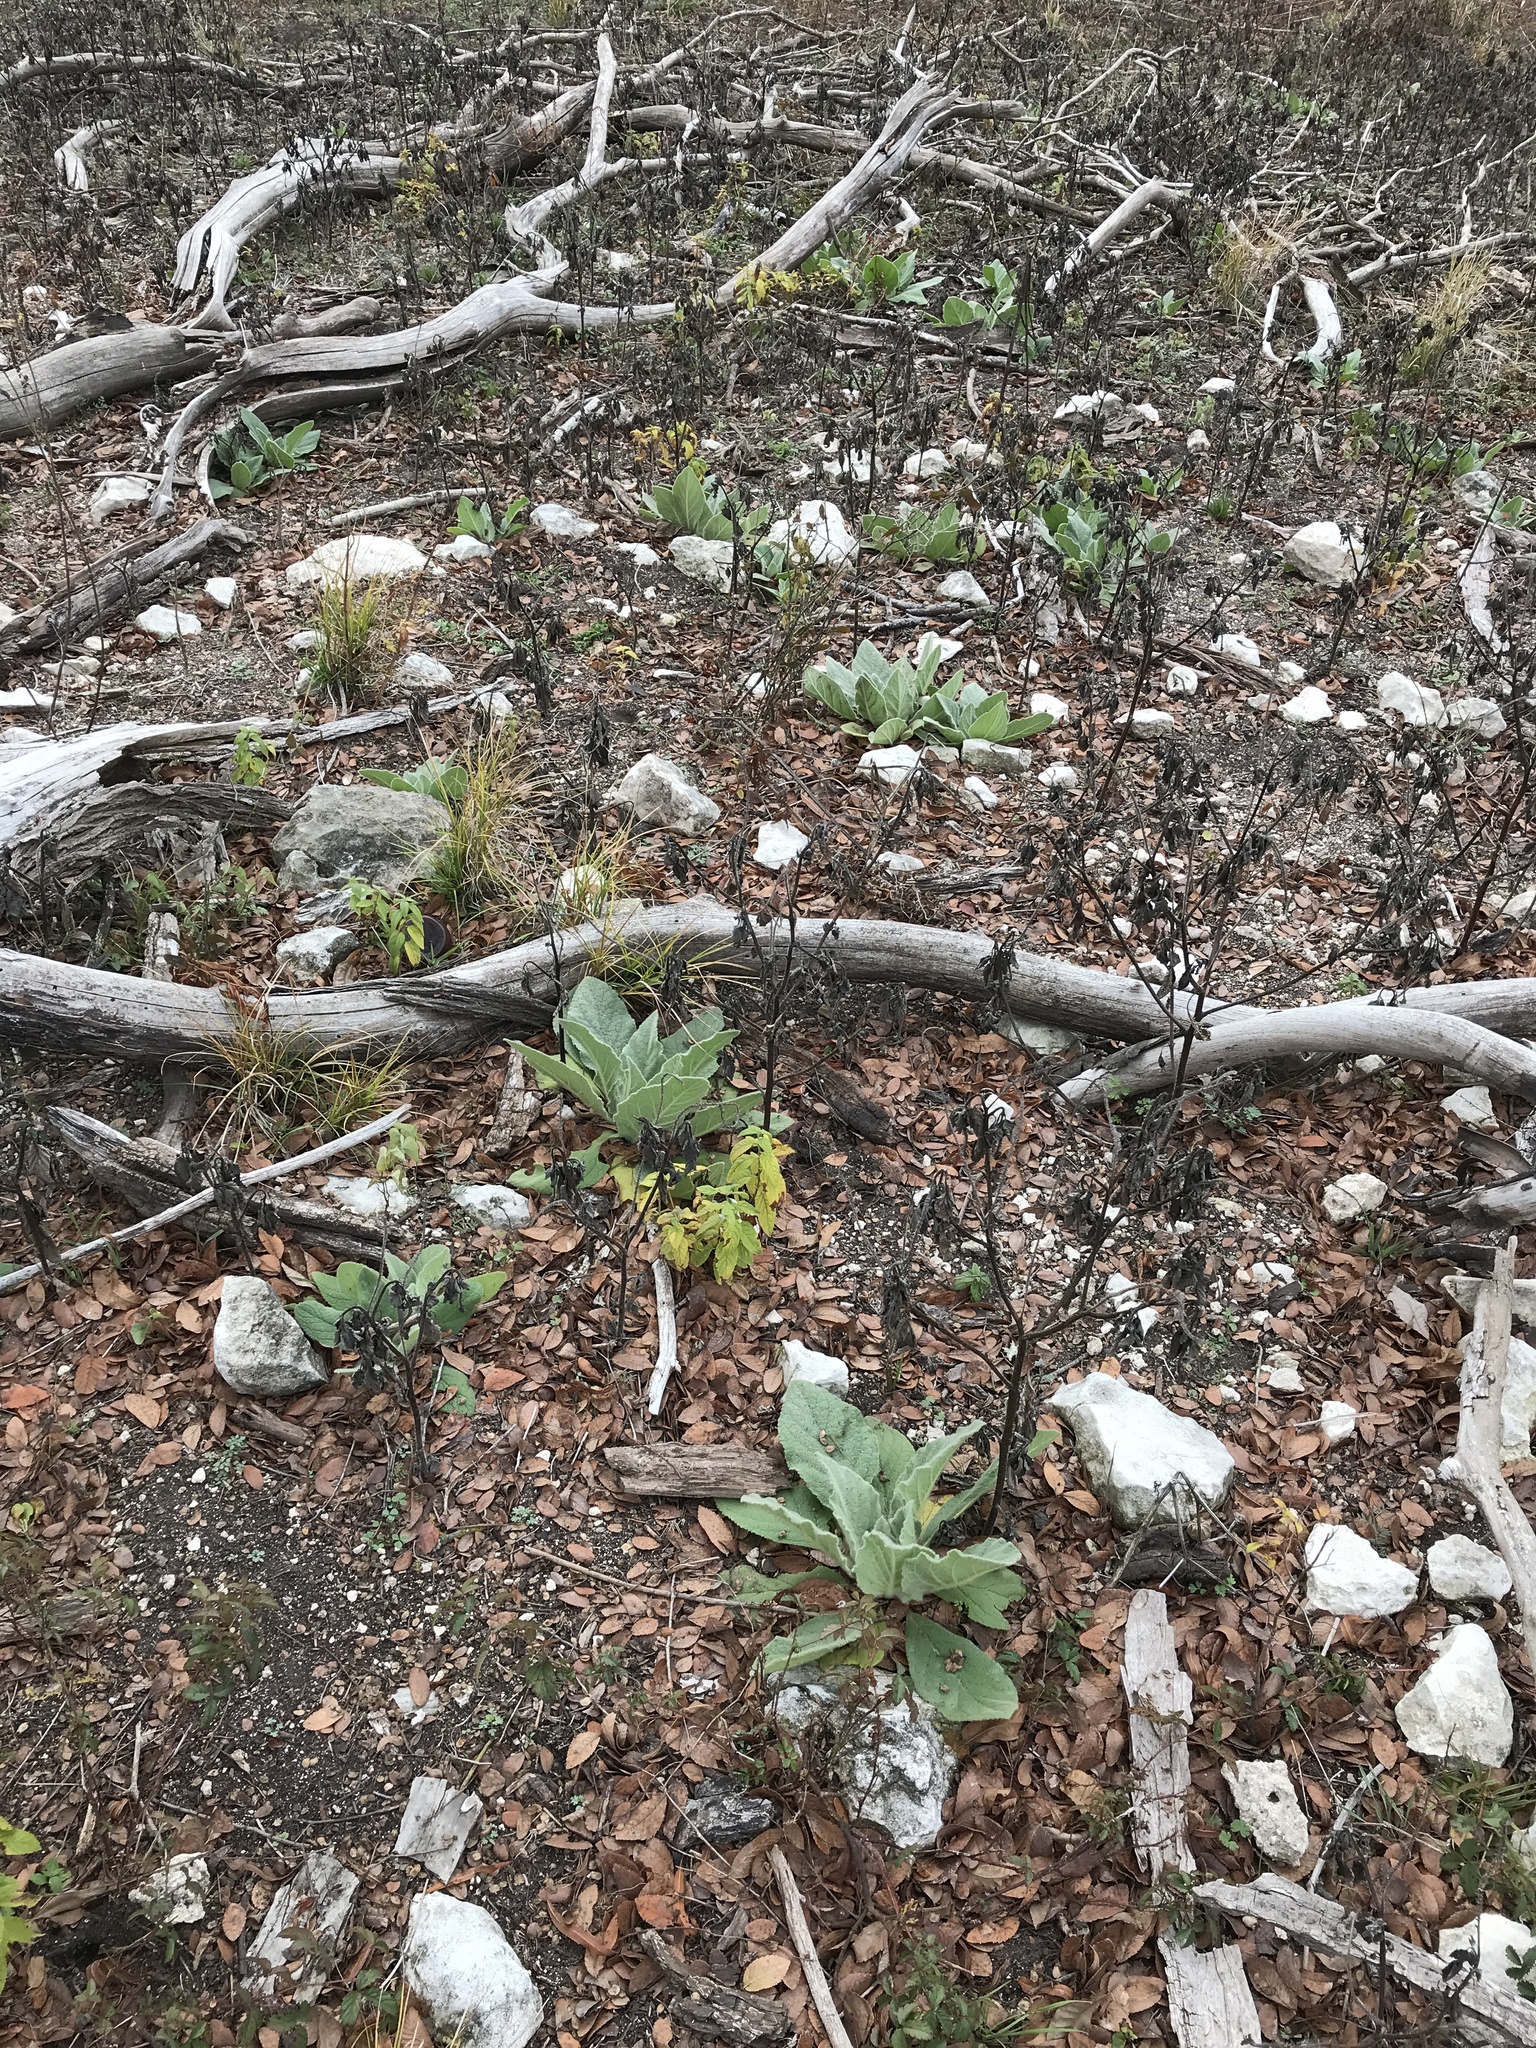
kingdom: Plantae
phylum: Tracheophyta
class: Magnoliopsida
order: Lamiales
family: Scrophulariaceae
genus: Verbascum
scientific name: Verbascum thapsus
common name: Common mullein
